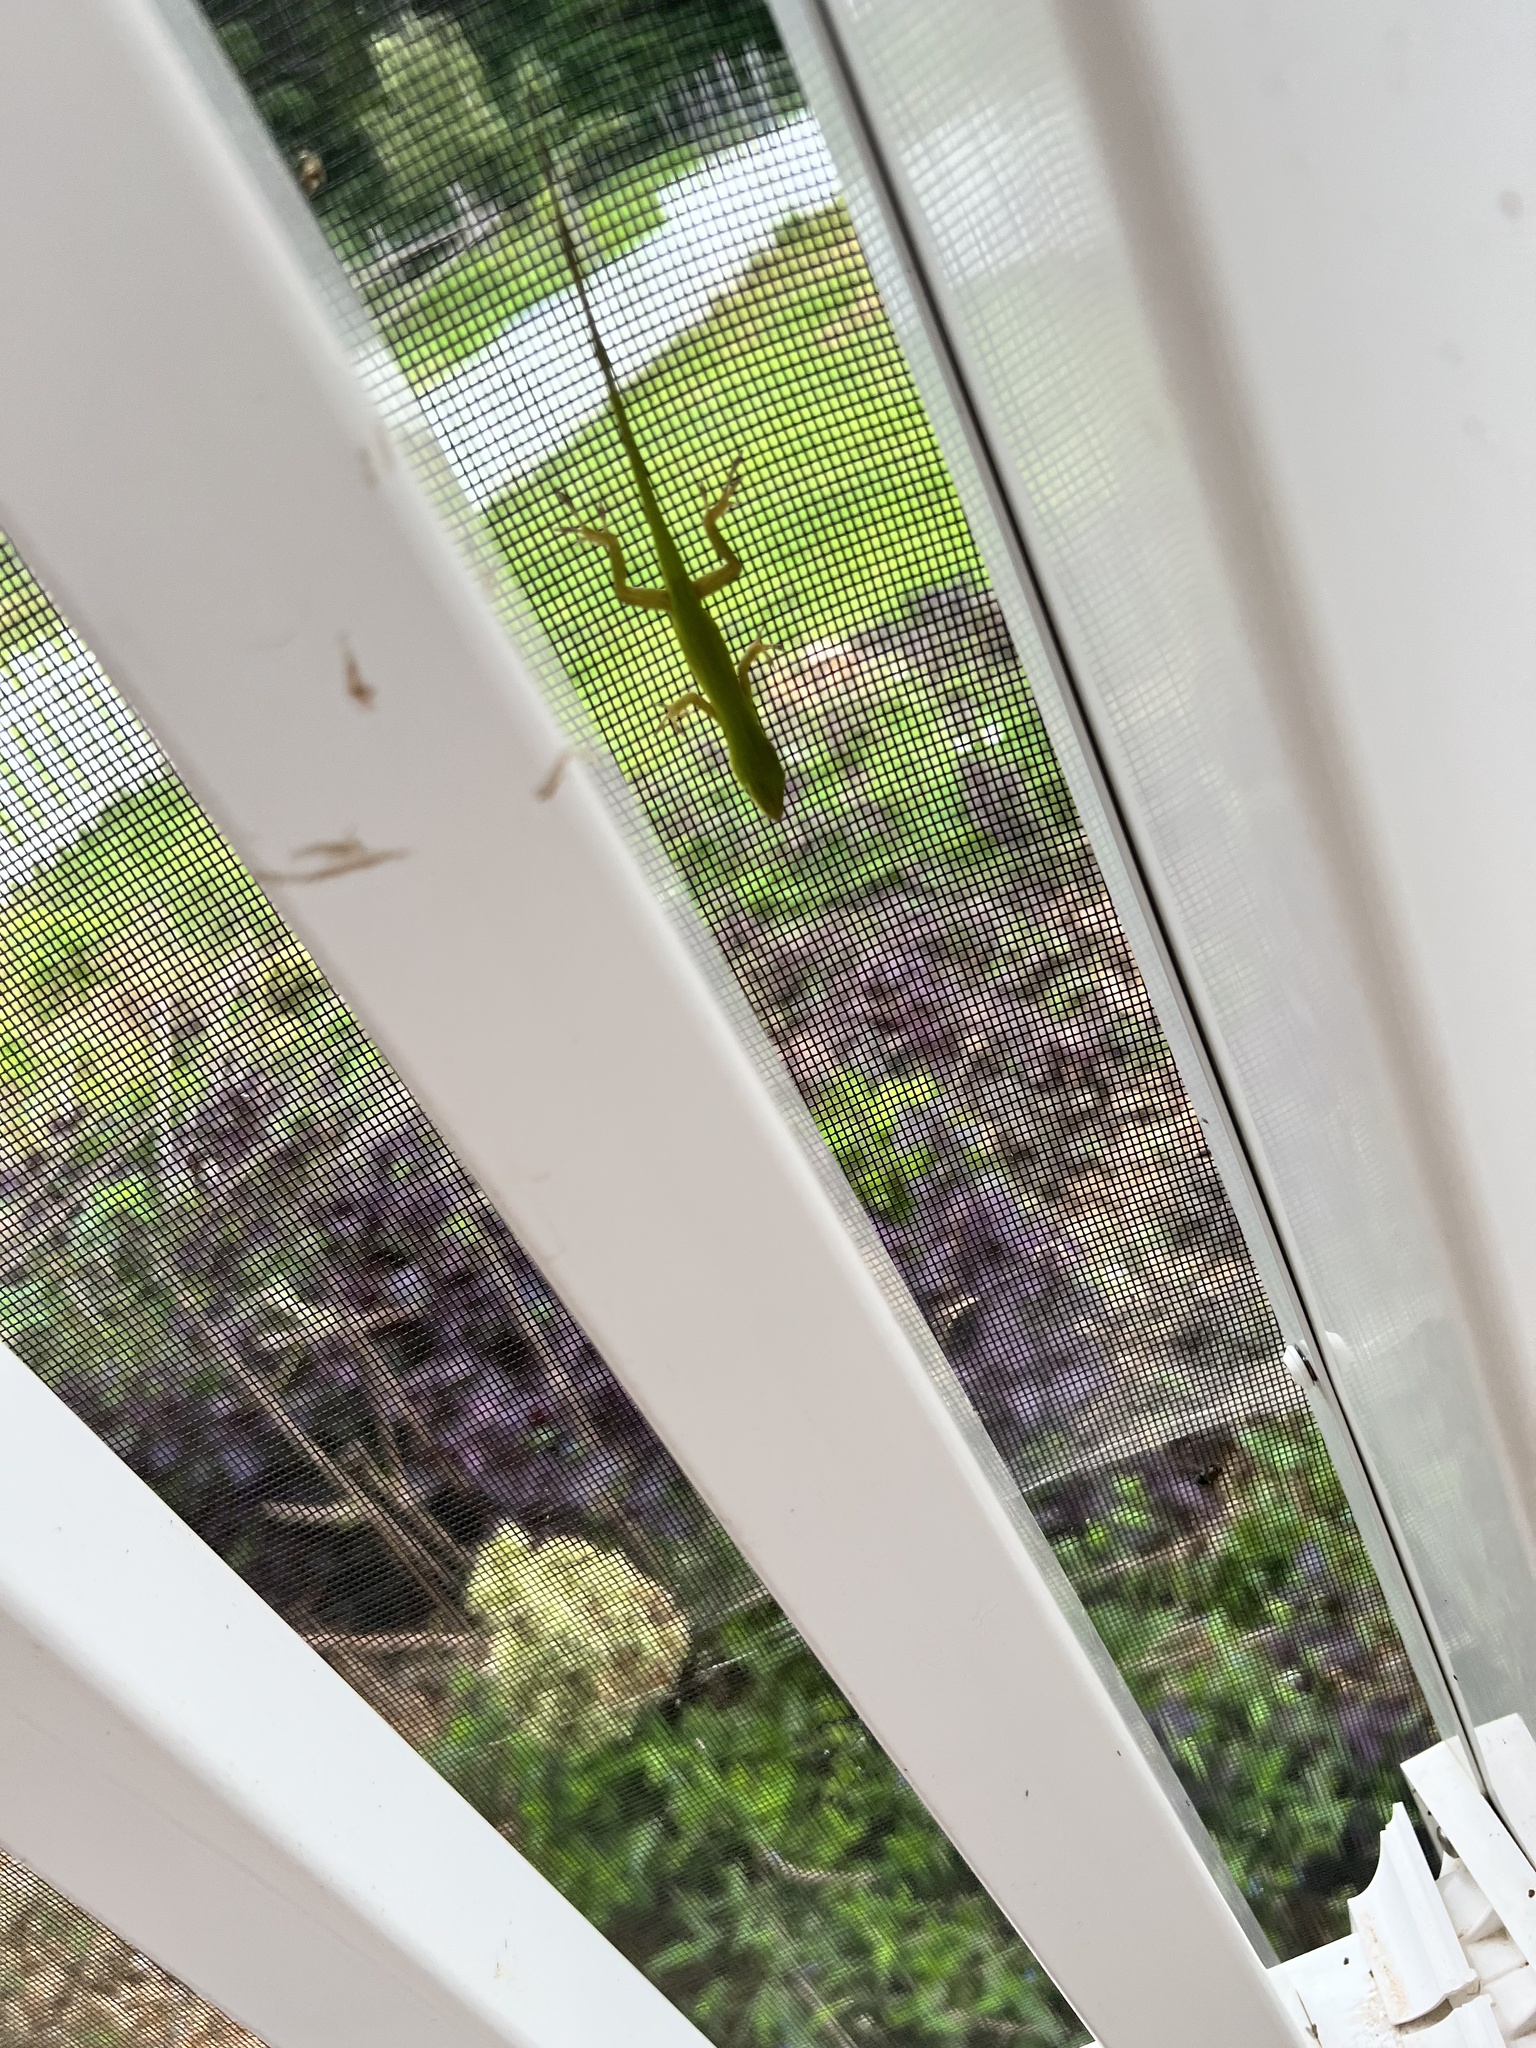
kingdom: Animalia
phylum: Chordata
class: Squamata
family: Dactyloidae
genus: Anolis
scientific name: Anolis carolinensis
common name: Green anole
